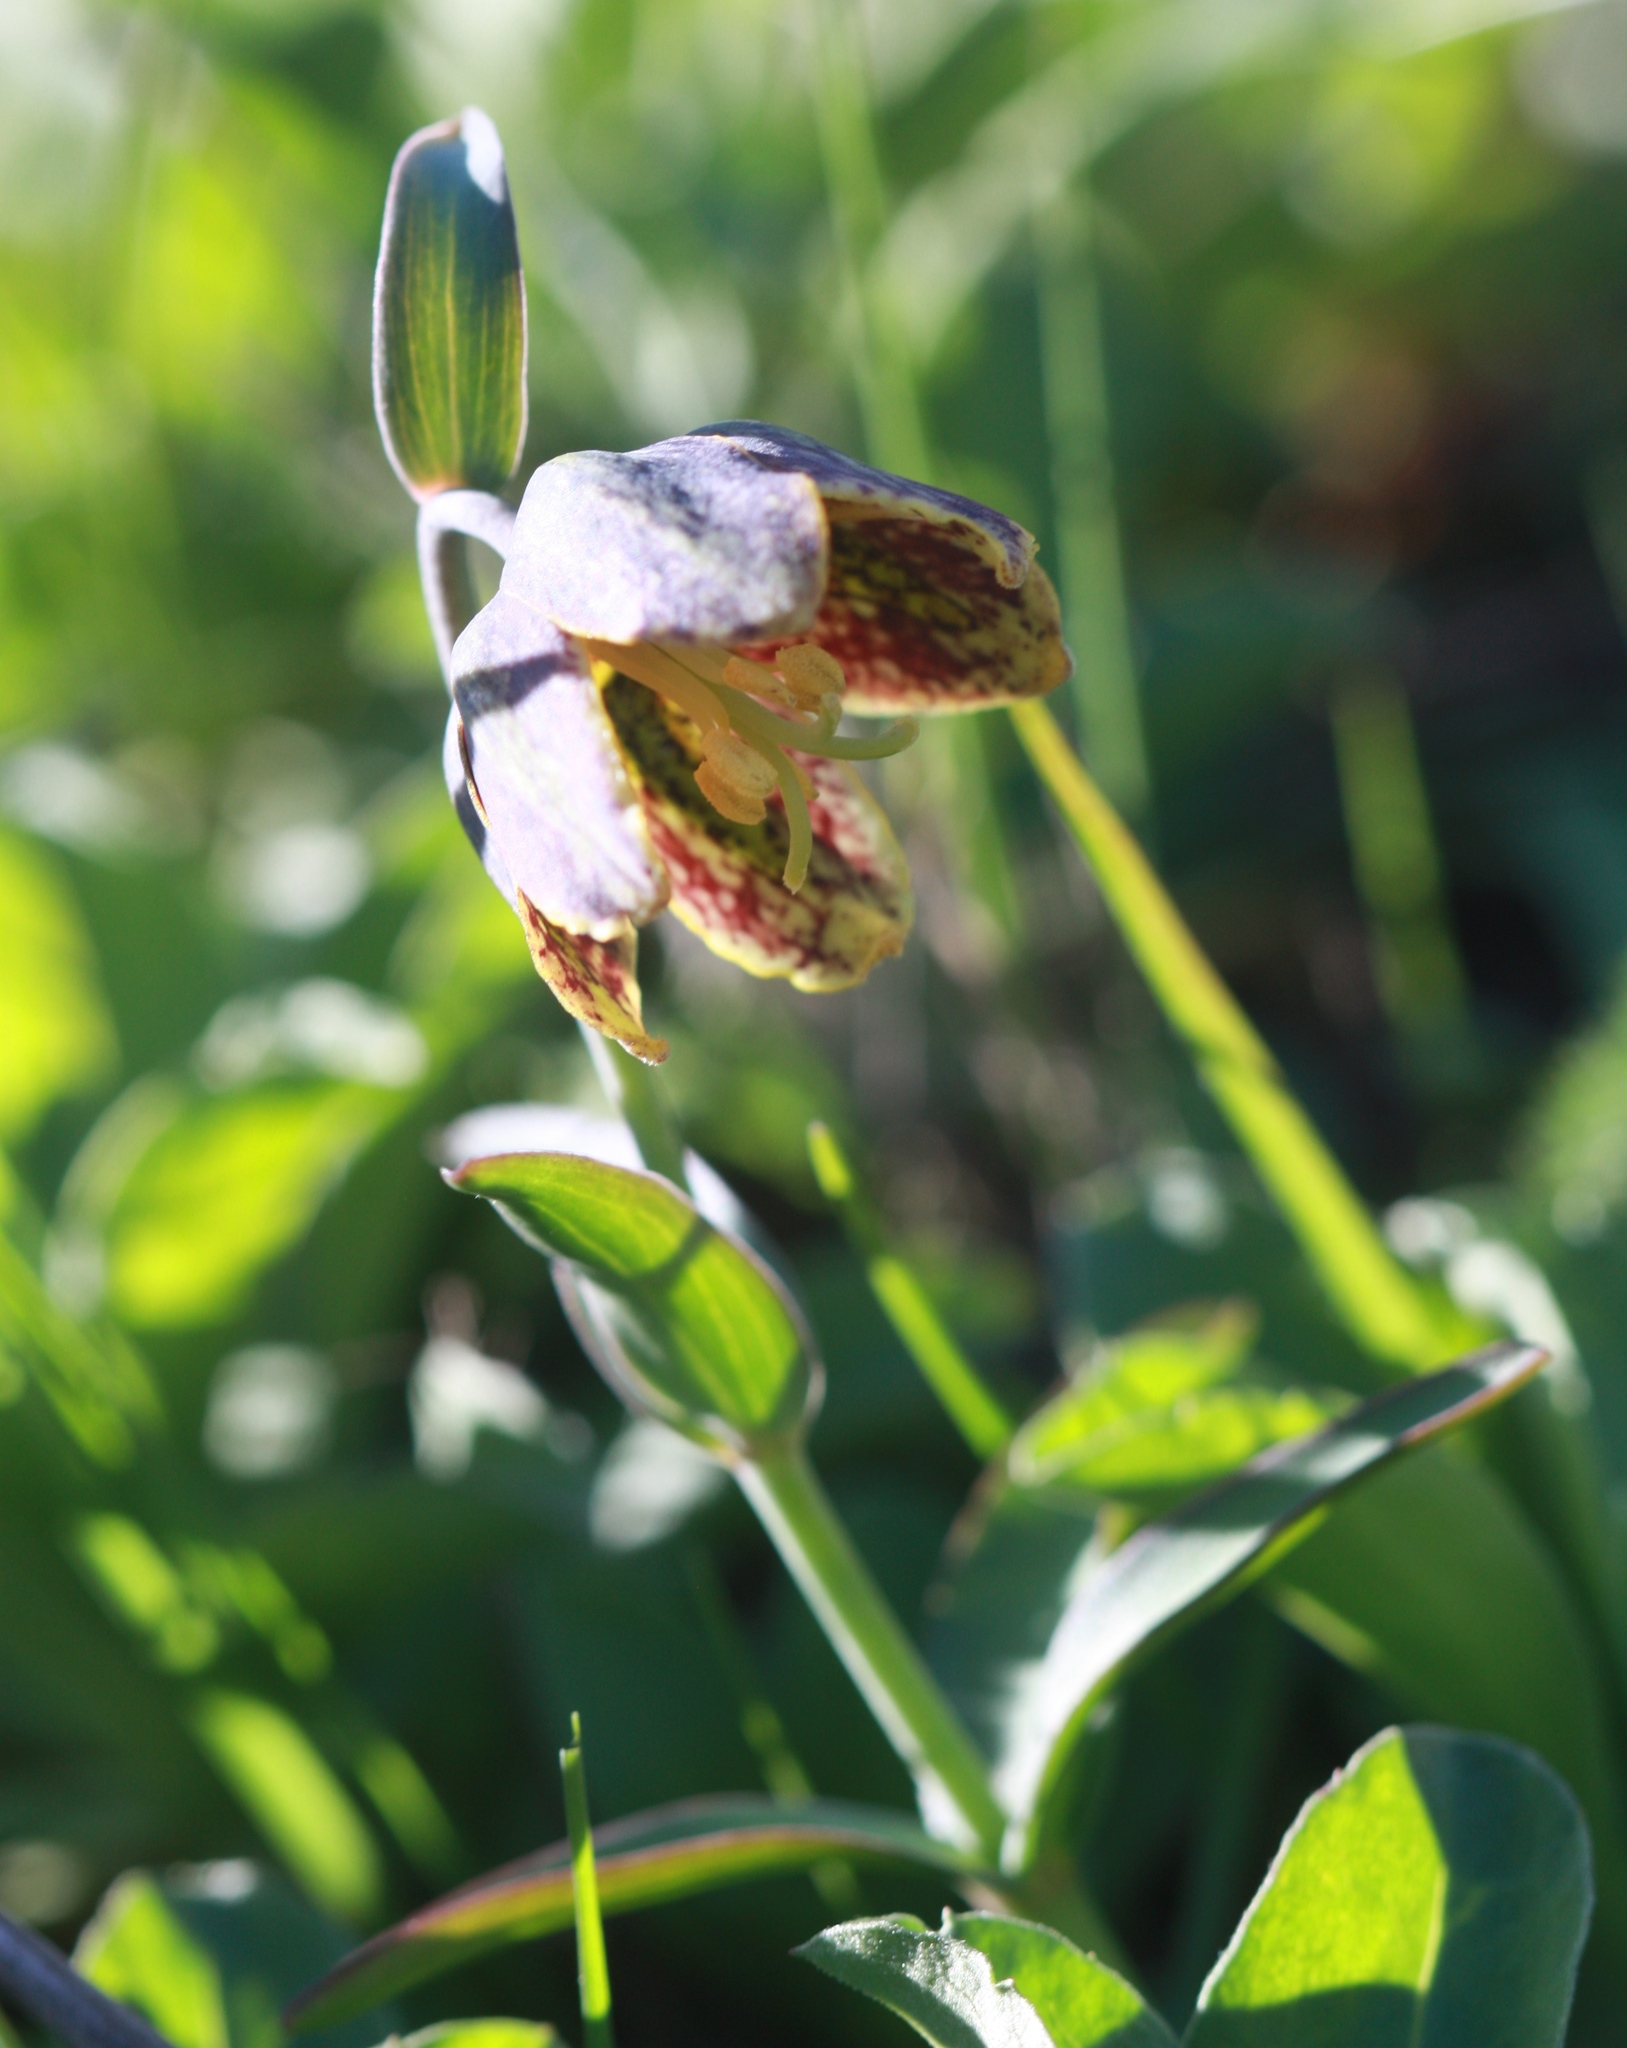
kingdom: Plantae
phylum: Tracheophyta
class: Liliopsida
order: Liliales
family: Liliaceae
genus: Fritillaria
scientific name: Fritillaria affinis
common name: Ojai fritillary
